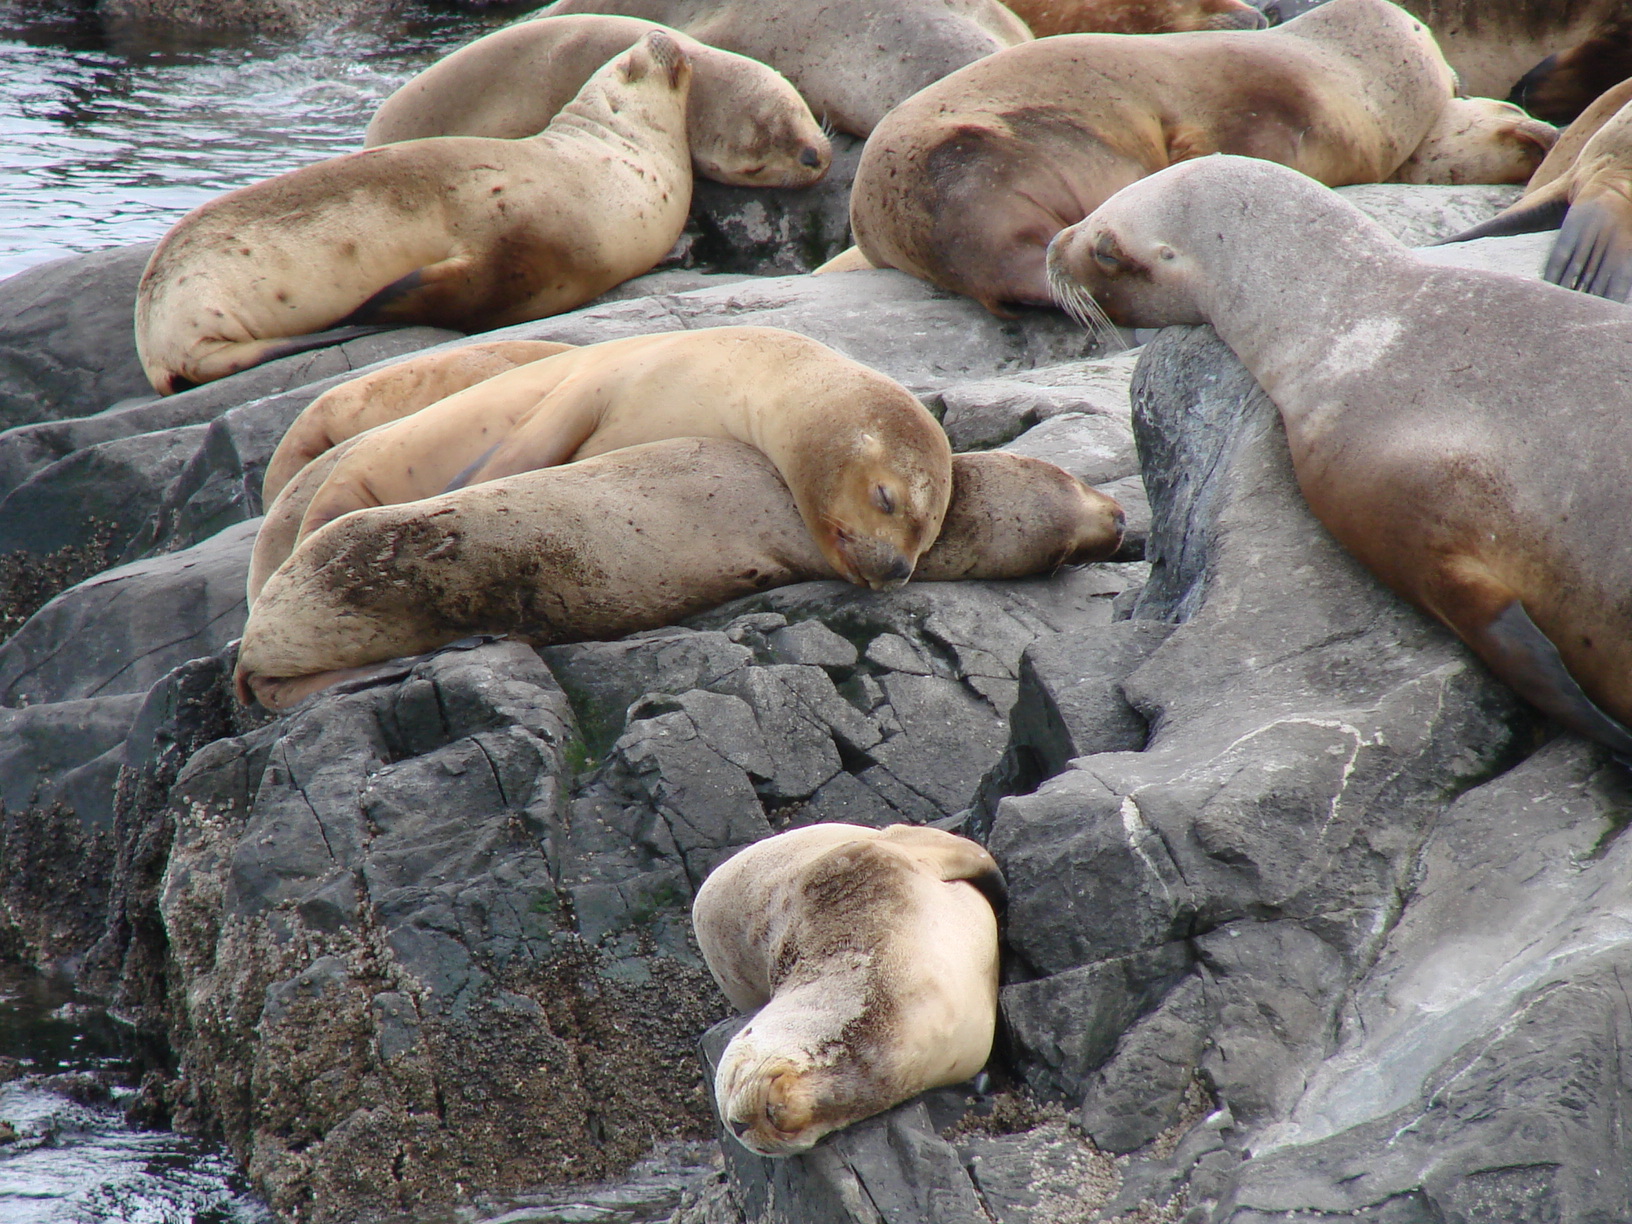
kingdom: Animalia
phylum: Chordata
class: Mammalia
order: Carnivora
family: Otariidae
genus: Otaria
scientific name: Otaria byronia
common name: South american sea lion
